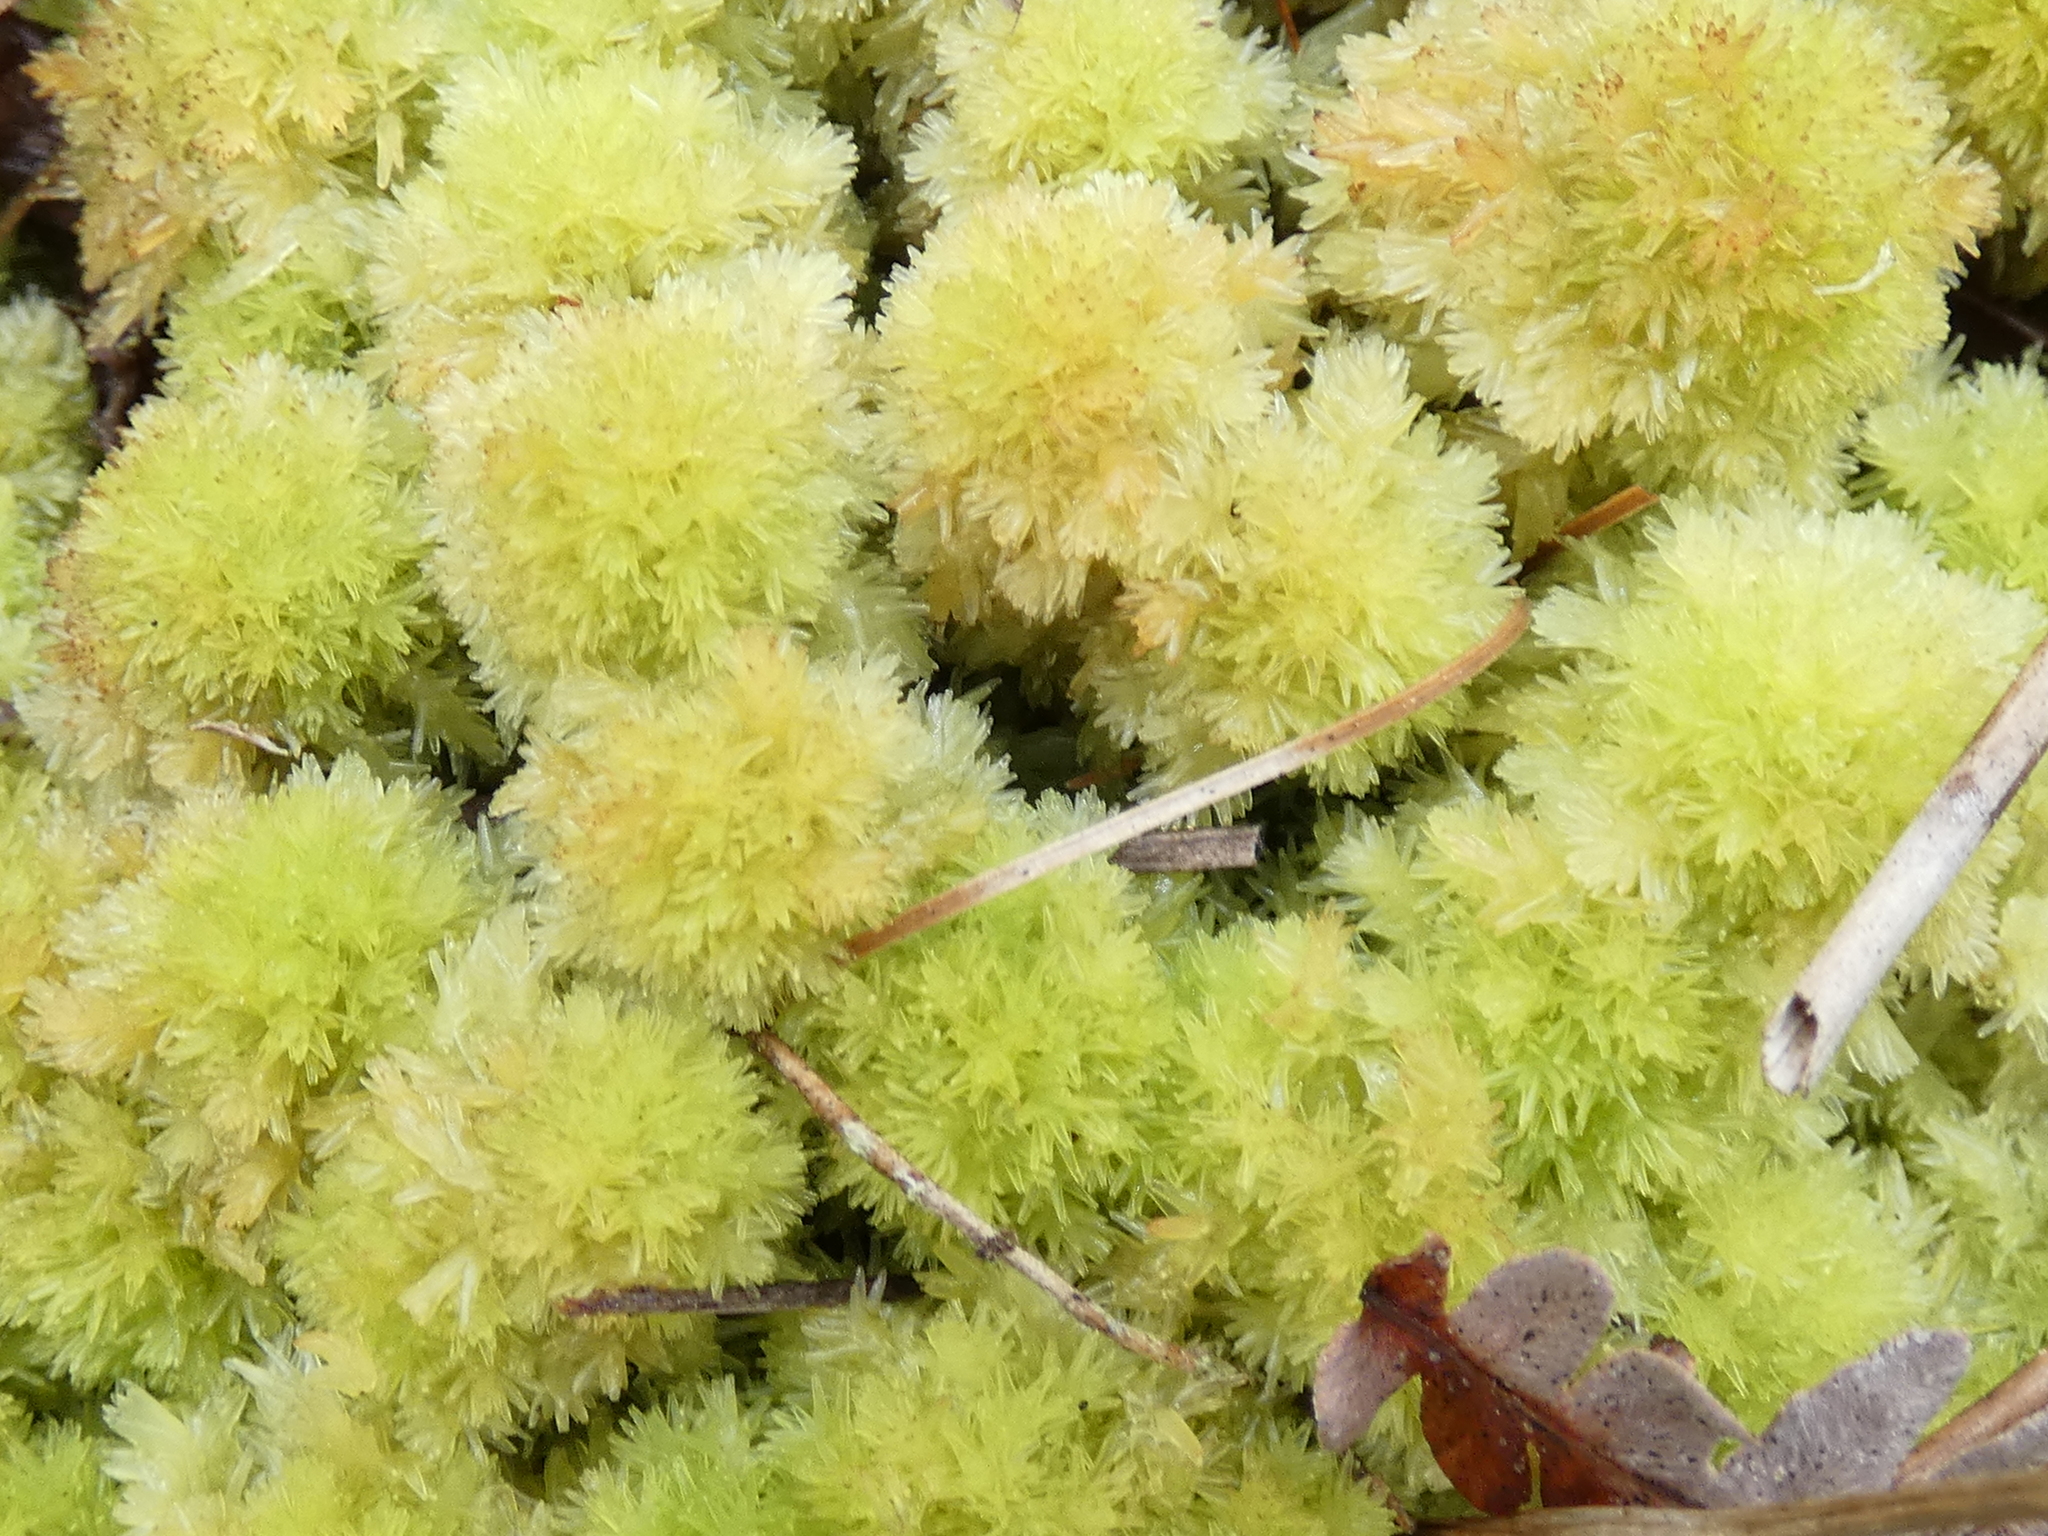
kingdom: Plantae
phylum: Bryophyta
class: Sphagnopsida
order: Sphagnales
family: Sphagnaceae
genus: Sphagnum
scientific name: Sphagnum strictum
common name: Pale bog-moss
